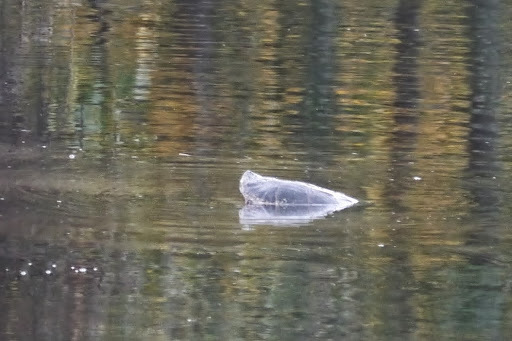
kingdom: Animalia
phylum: Chordata
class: Testudines
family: Chelydridae
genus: Chelydra
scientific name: Chelydra serpentina
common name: Common snapping turtle
